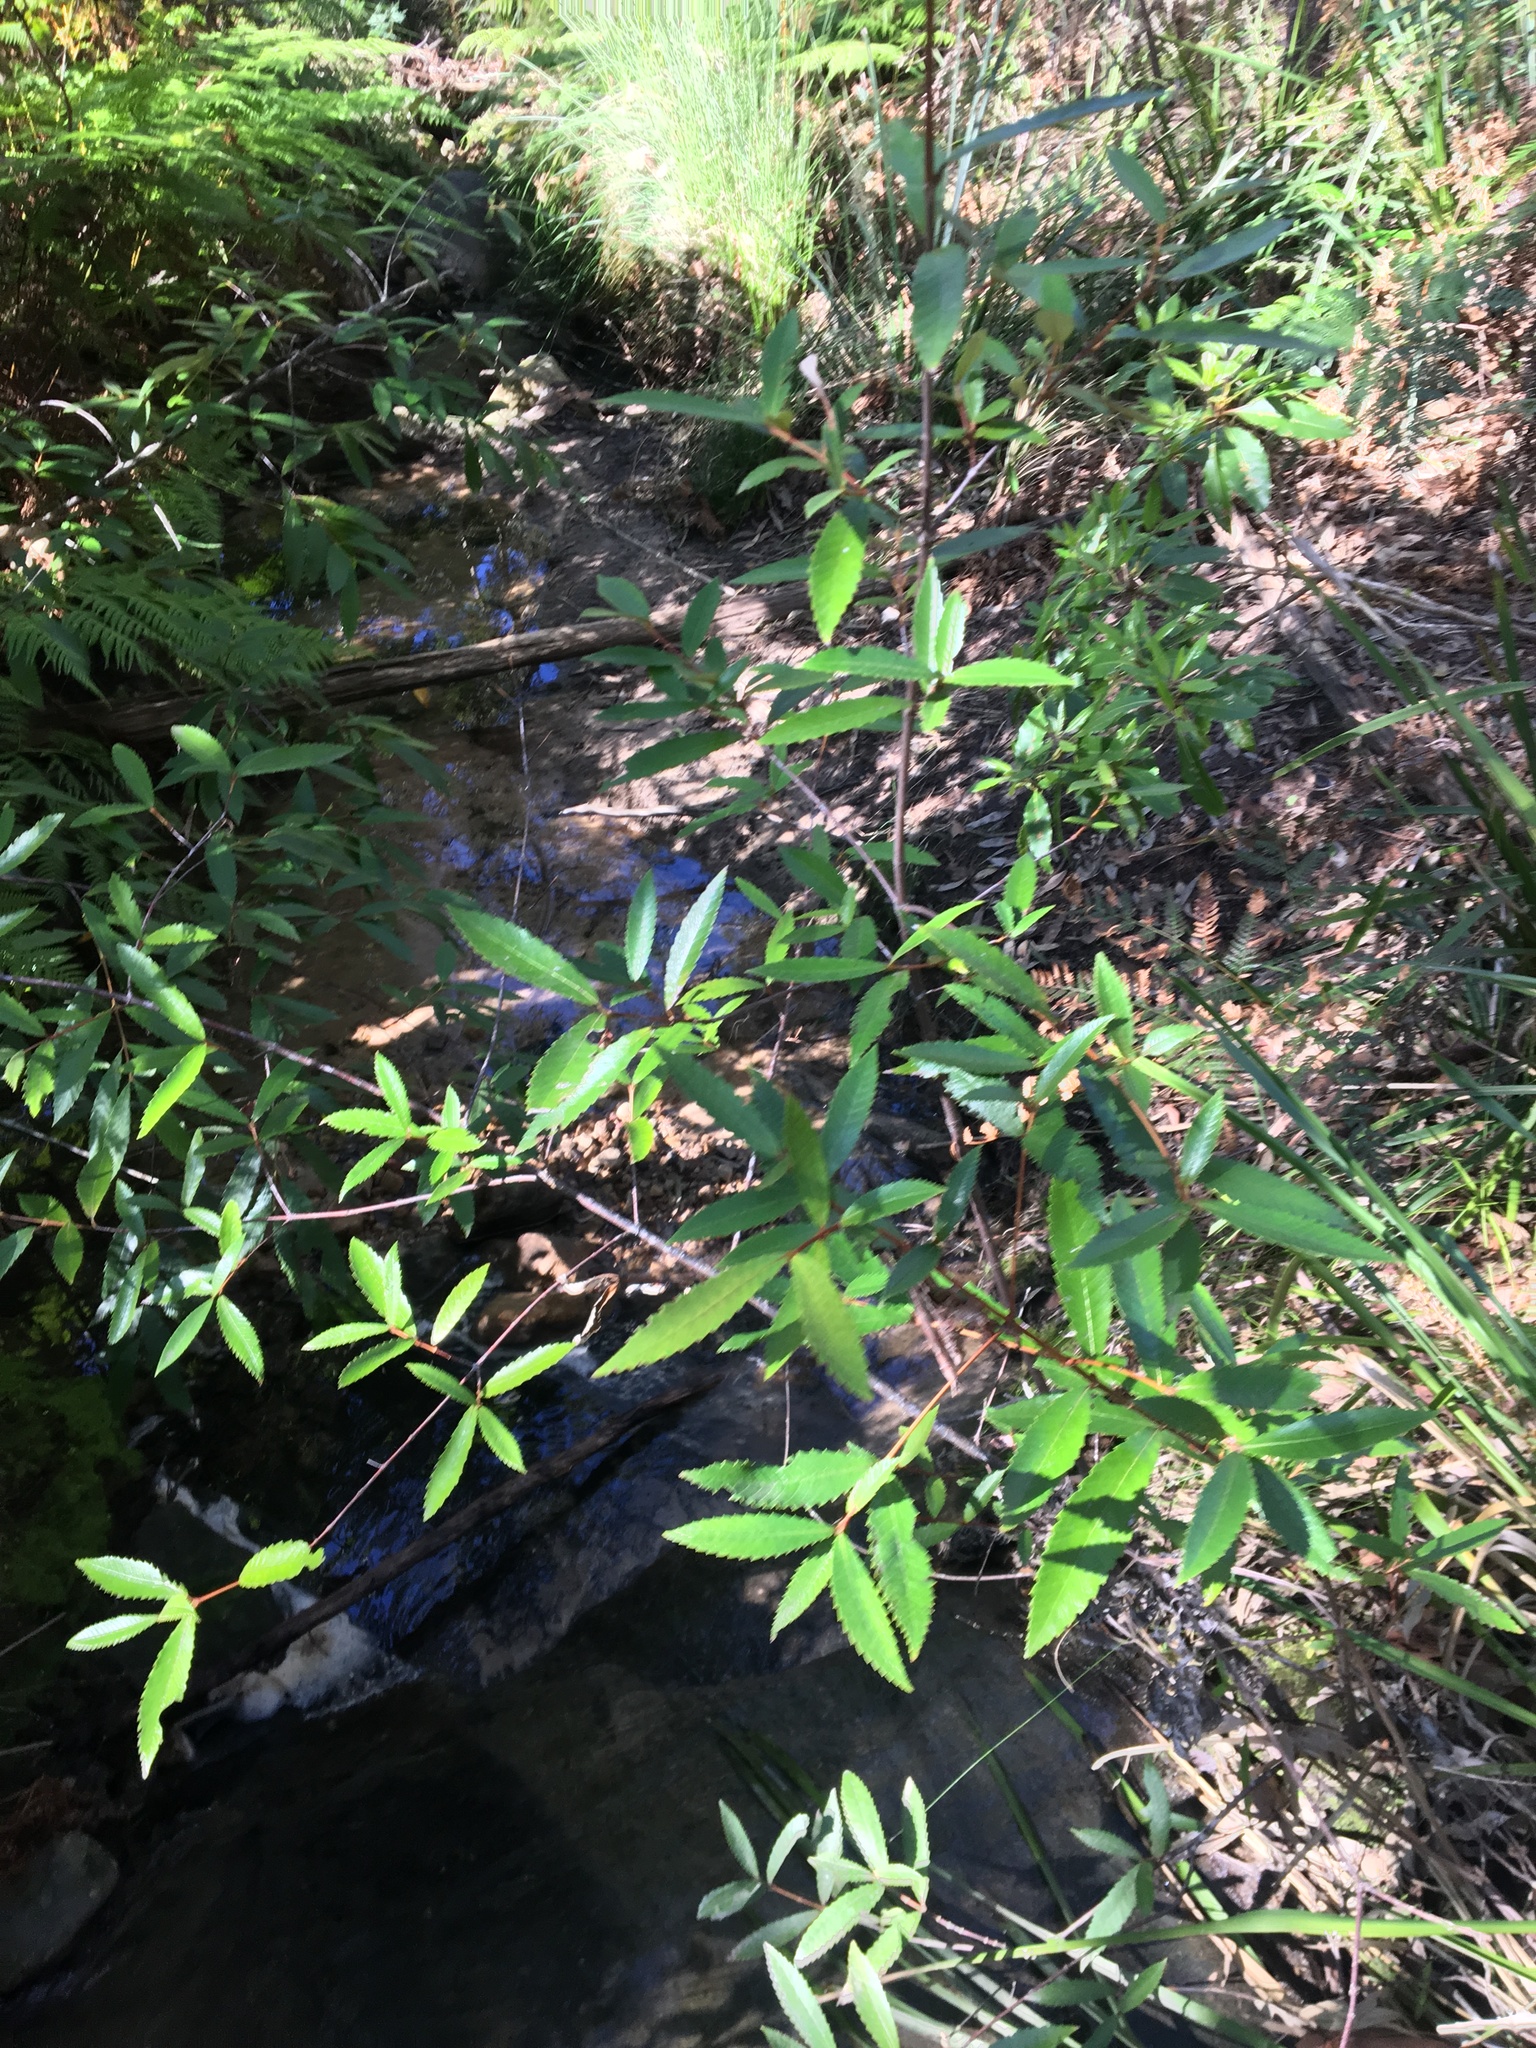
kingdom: Plantae
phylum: Tracheophyta
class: Magnoliopsida
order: Oxalidales
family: Cunoniaceae
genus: Callicoma
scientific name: Callicoma serratifolia
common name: Black wattle
